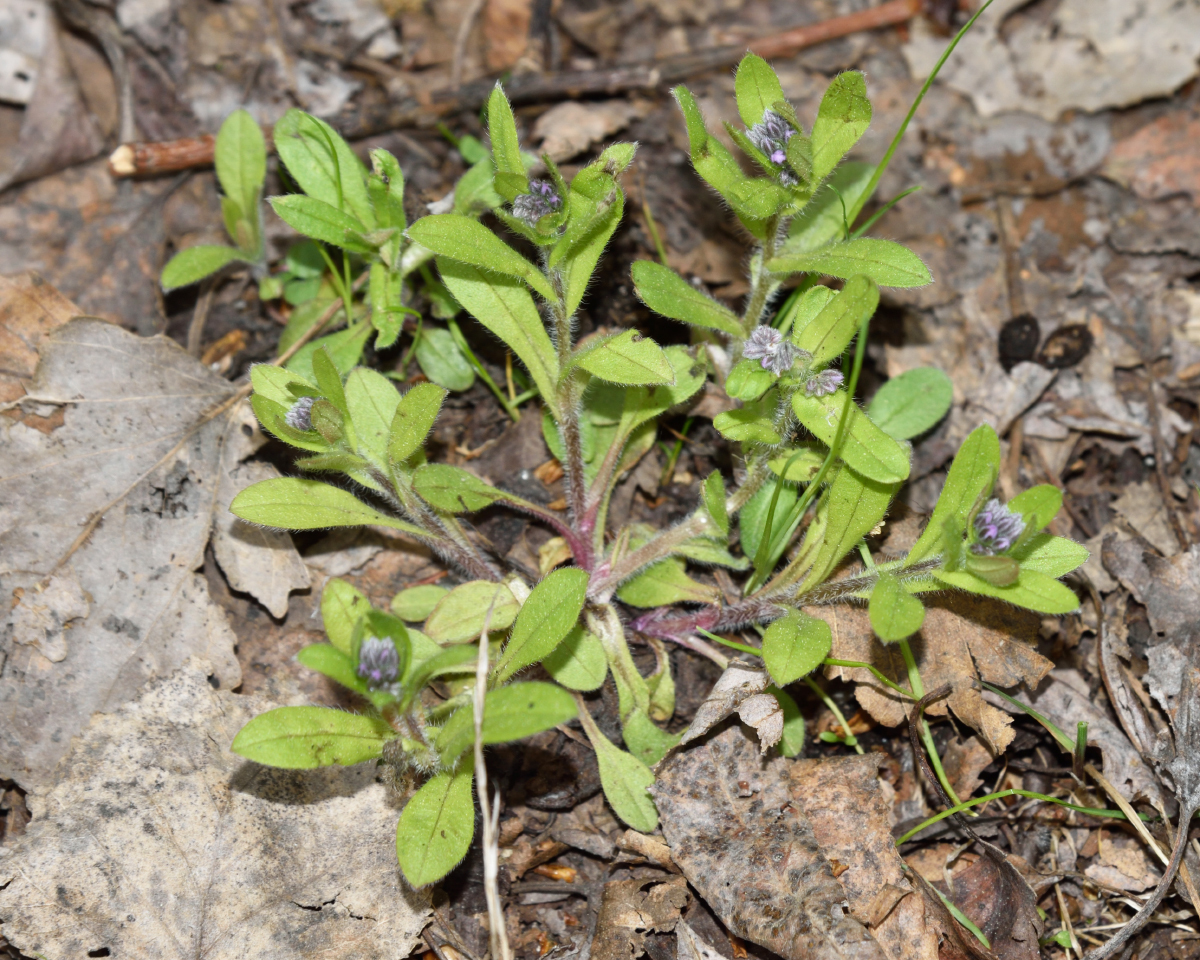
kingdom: Plantae
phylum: Tracheophyta
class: Magnoliopsida
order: Boraginales
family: Boraginaceae
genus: Myosotis
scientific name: Myosotis sylvatica
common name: Wood forget-me-not
